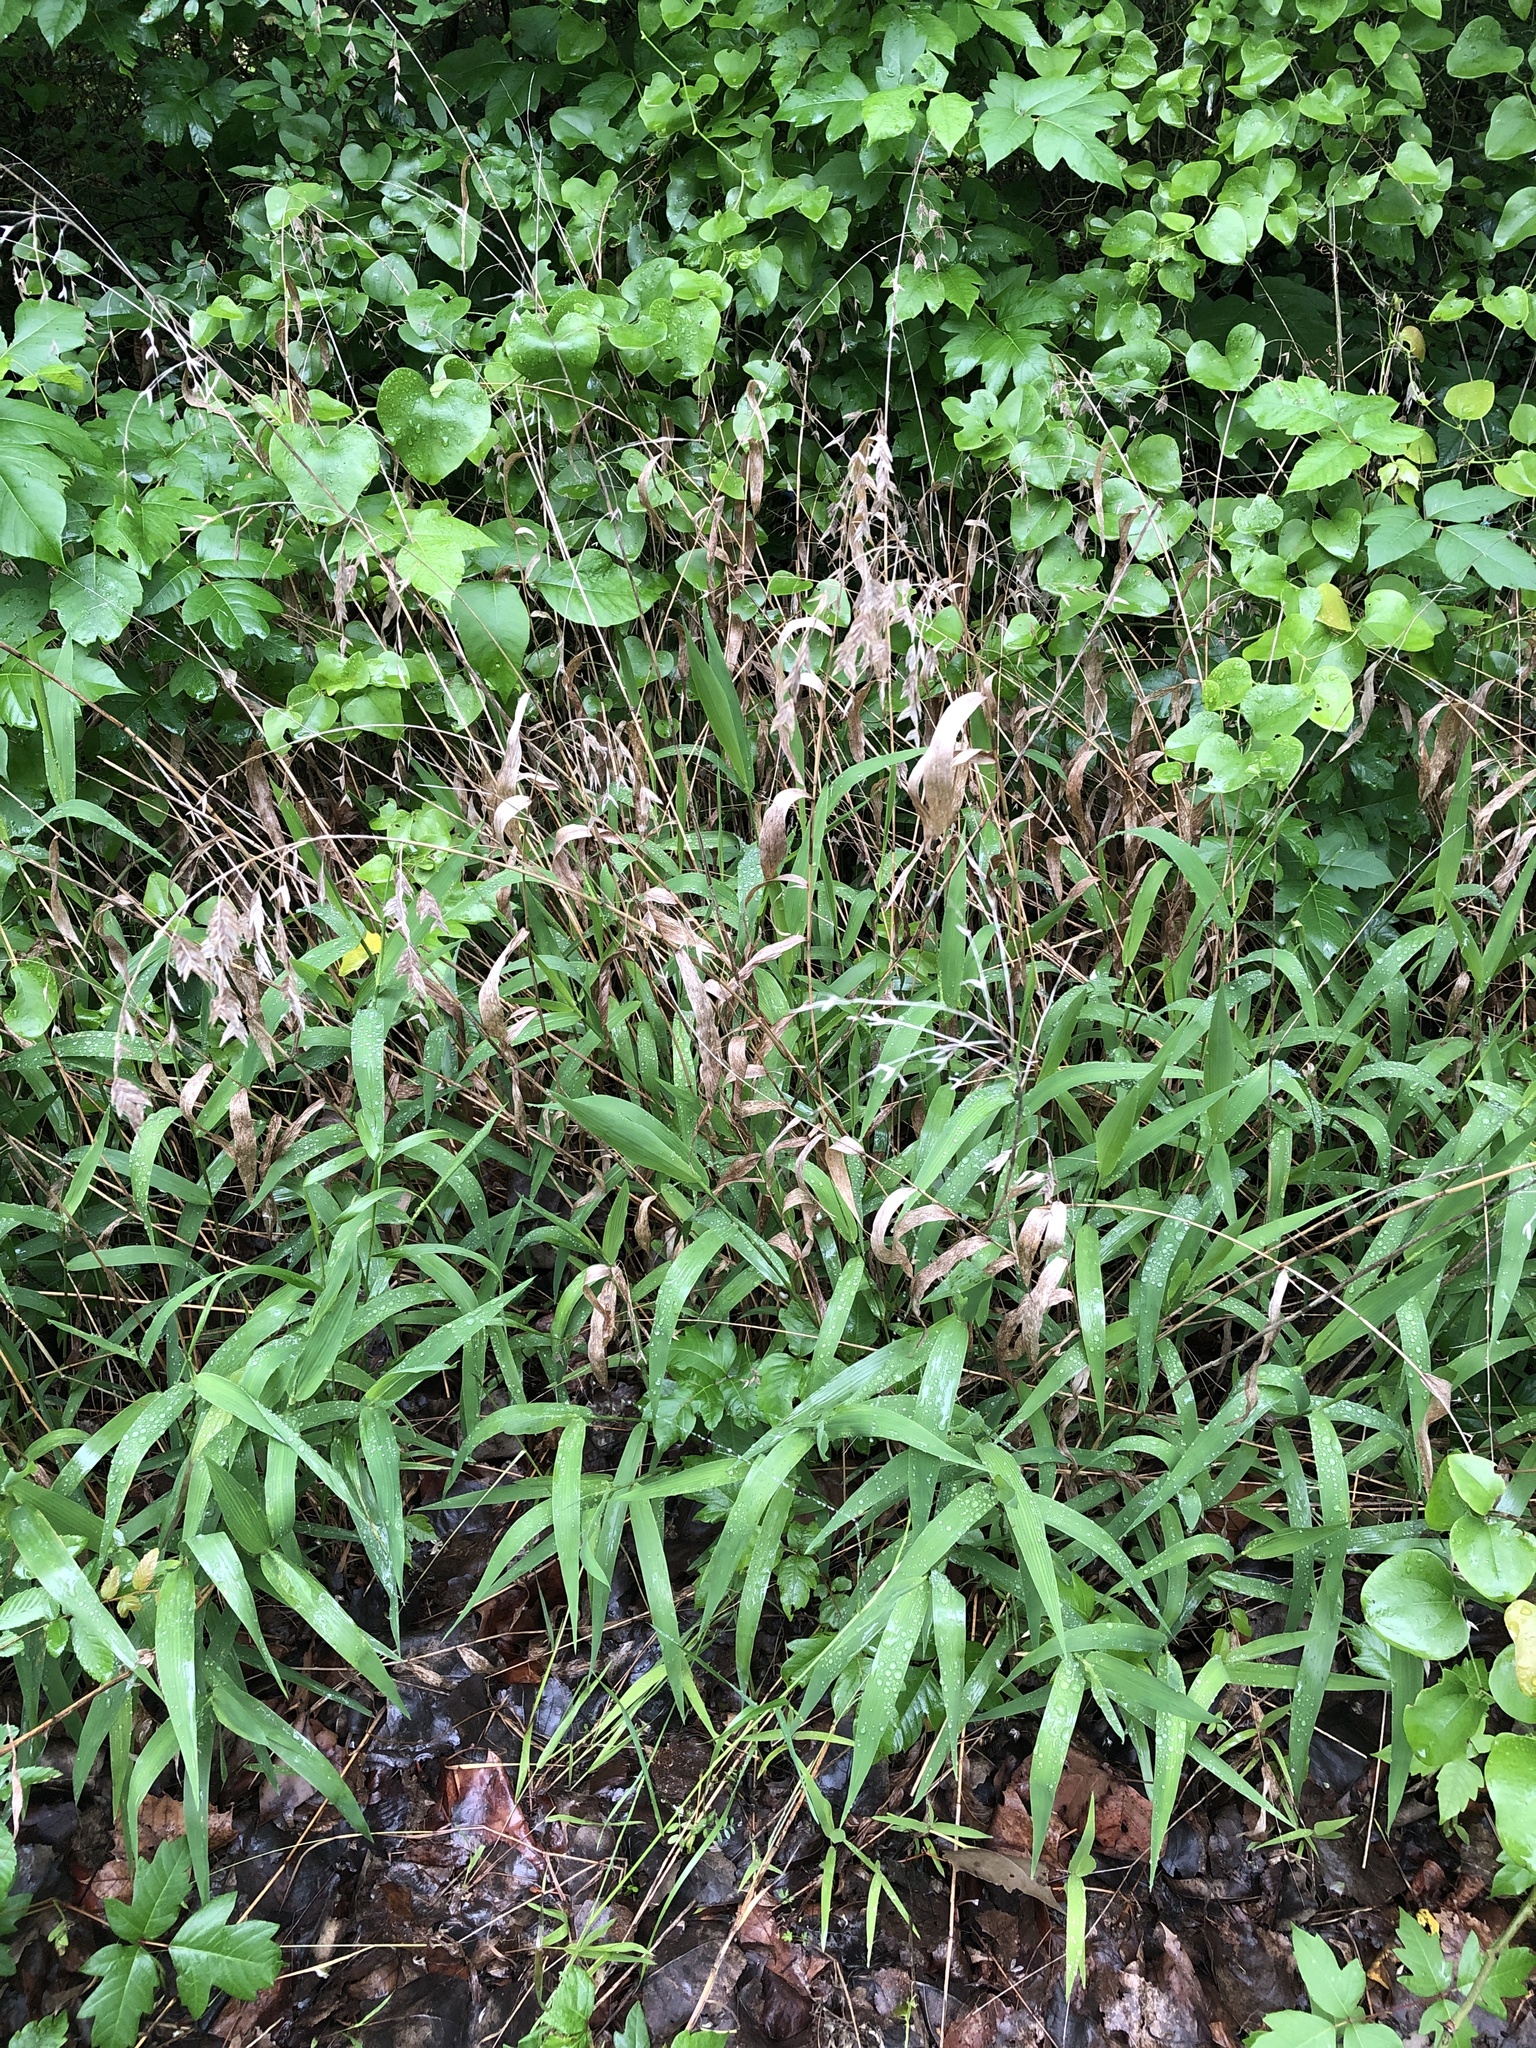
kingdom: Plantae
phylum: Tracheophyta
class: Liliopsida
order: Poales
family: Poaceae
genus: Chasmanthium
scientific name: Chasmanthium latifolium
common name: Broad-leaved chasmanthium
